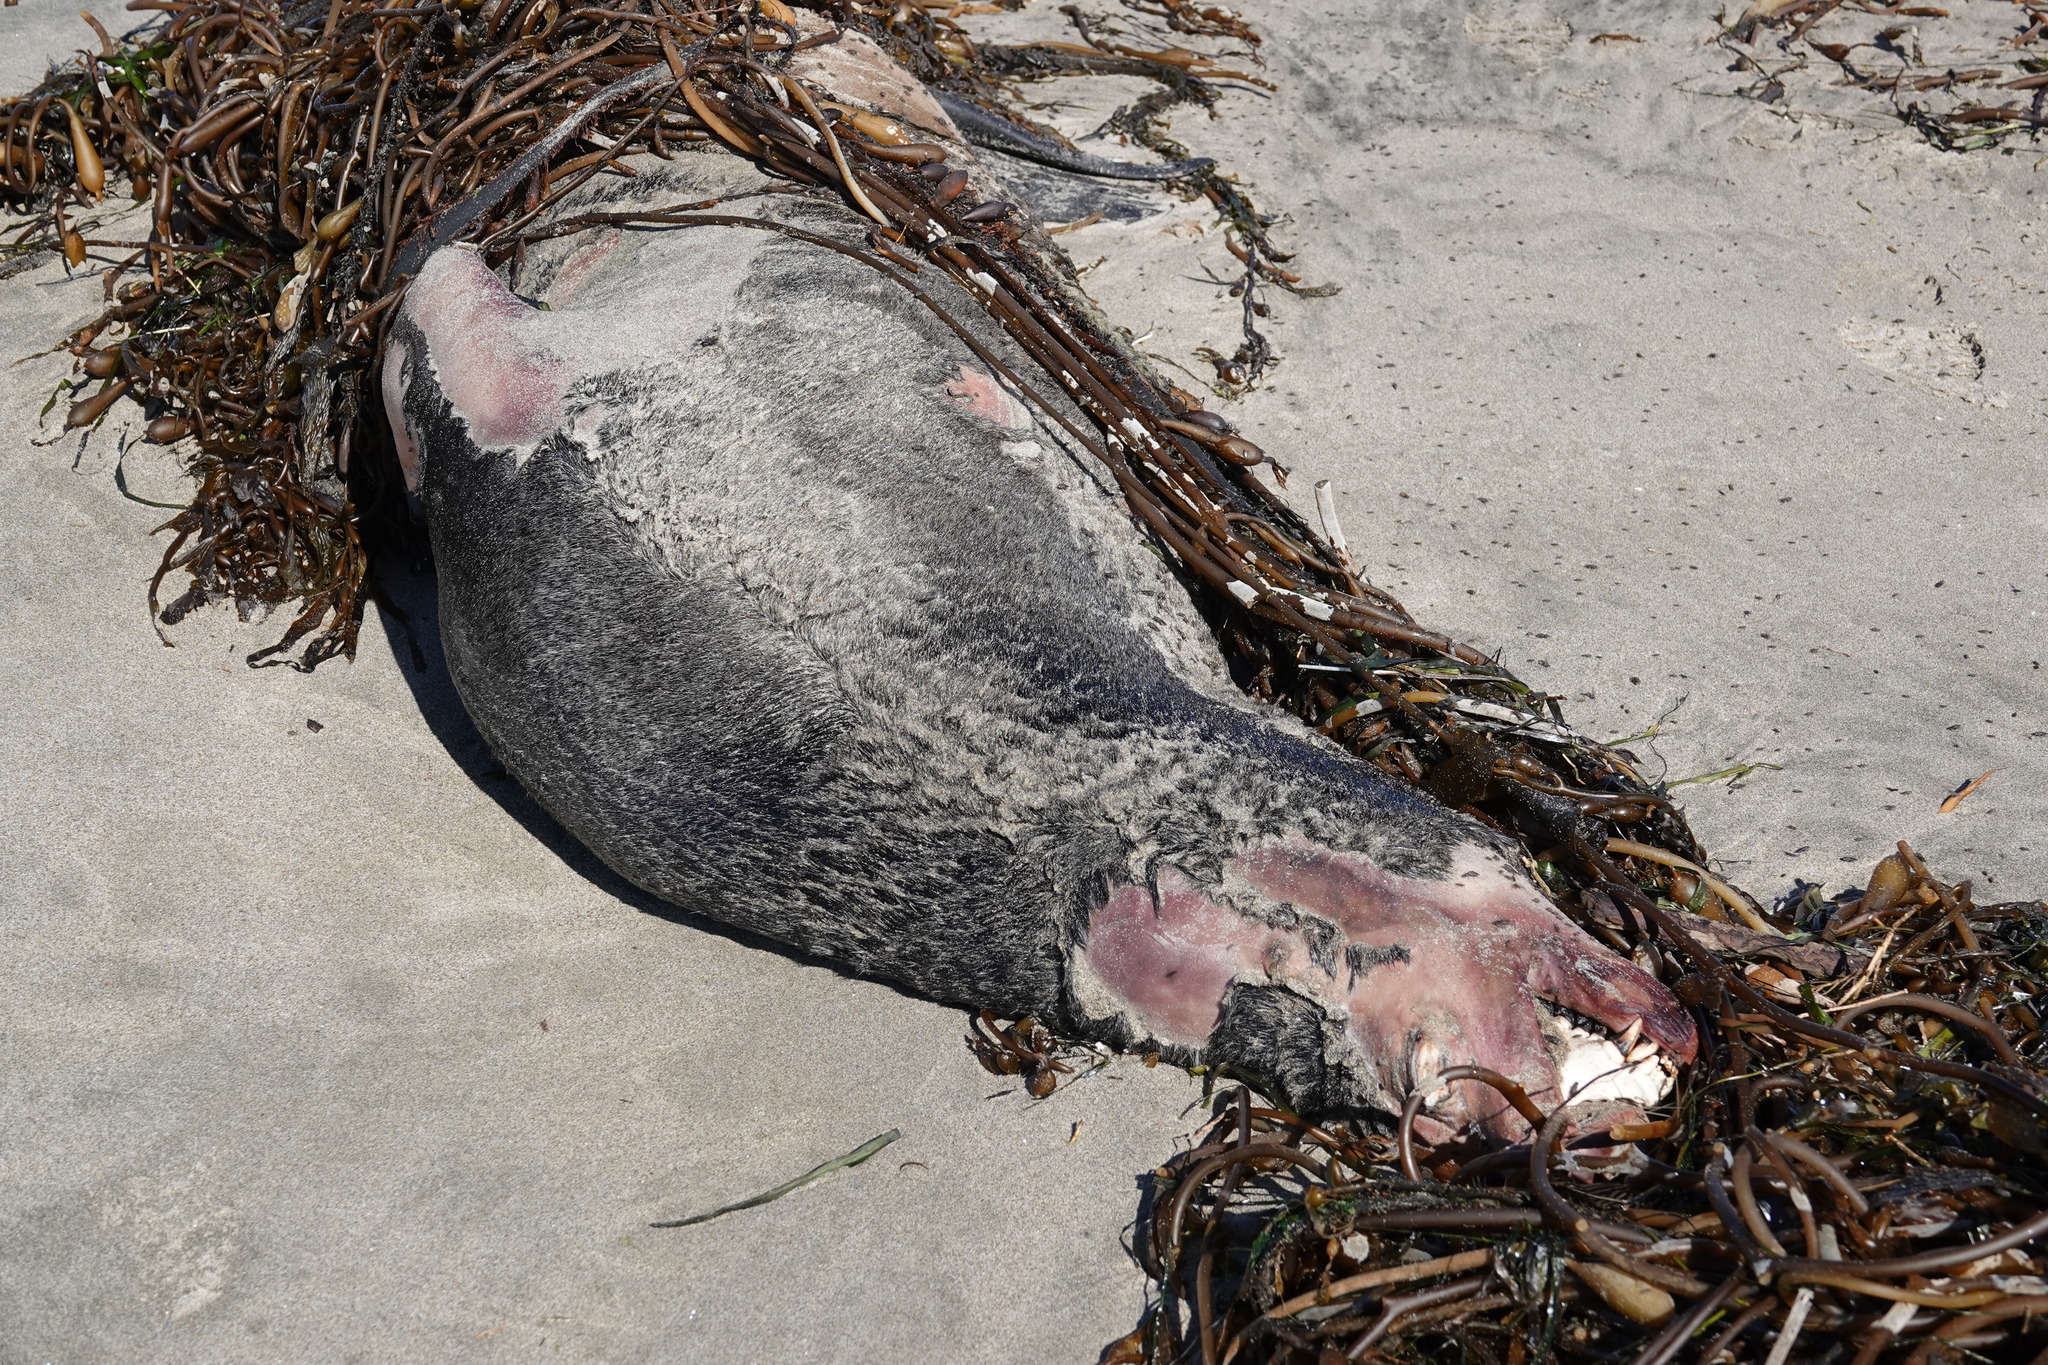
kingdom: Animalia
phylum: Chordata
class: Mammalia
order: Carnivora
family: Otariidae
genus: Zalophus
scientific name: Zalophus californianus
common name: California sea lion
